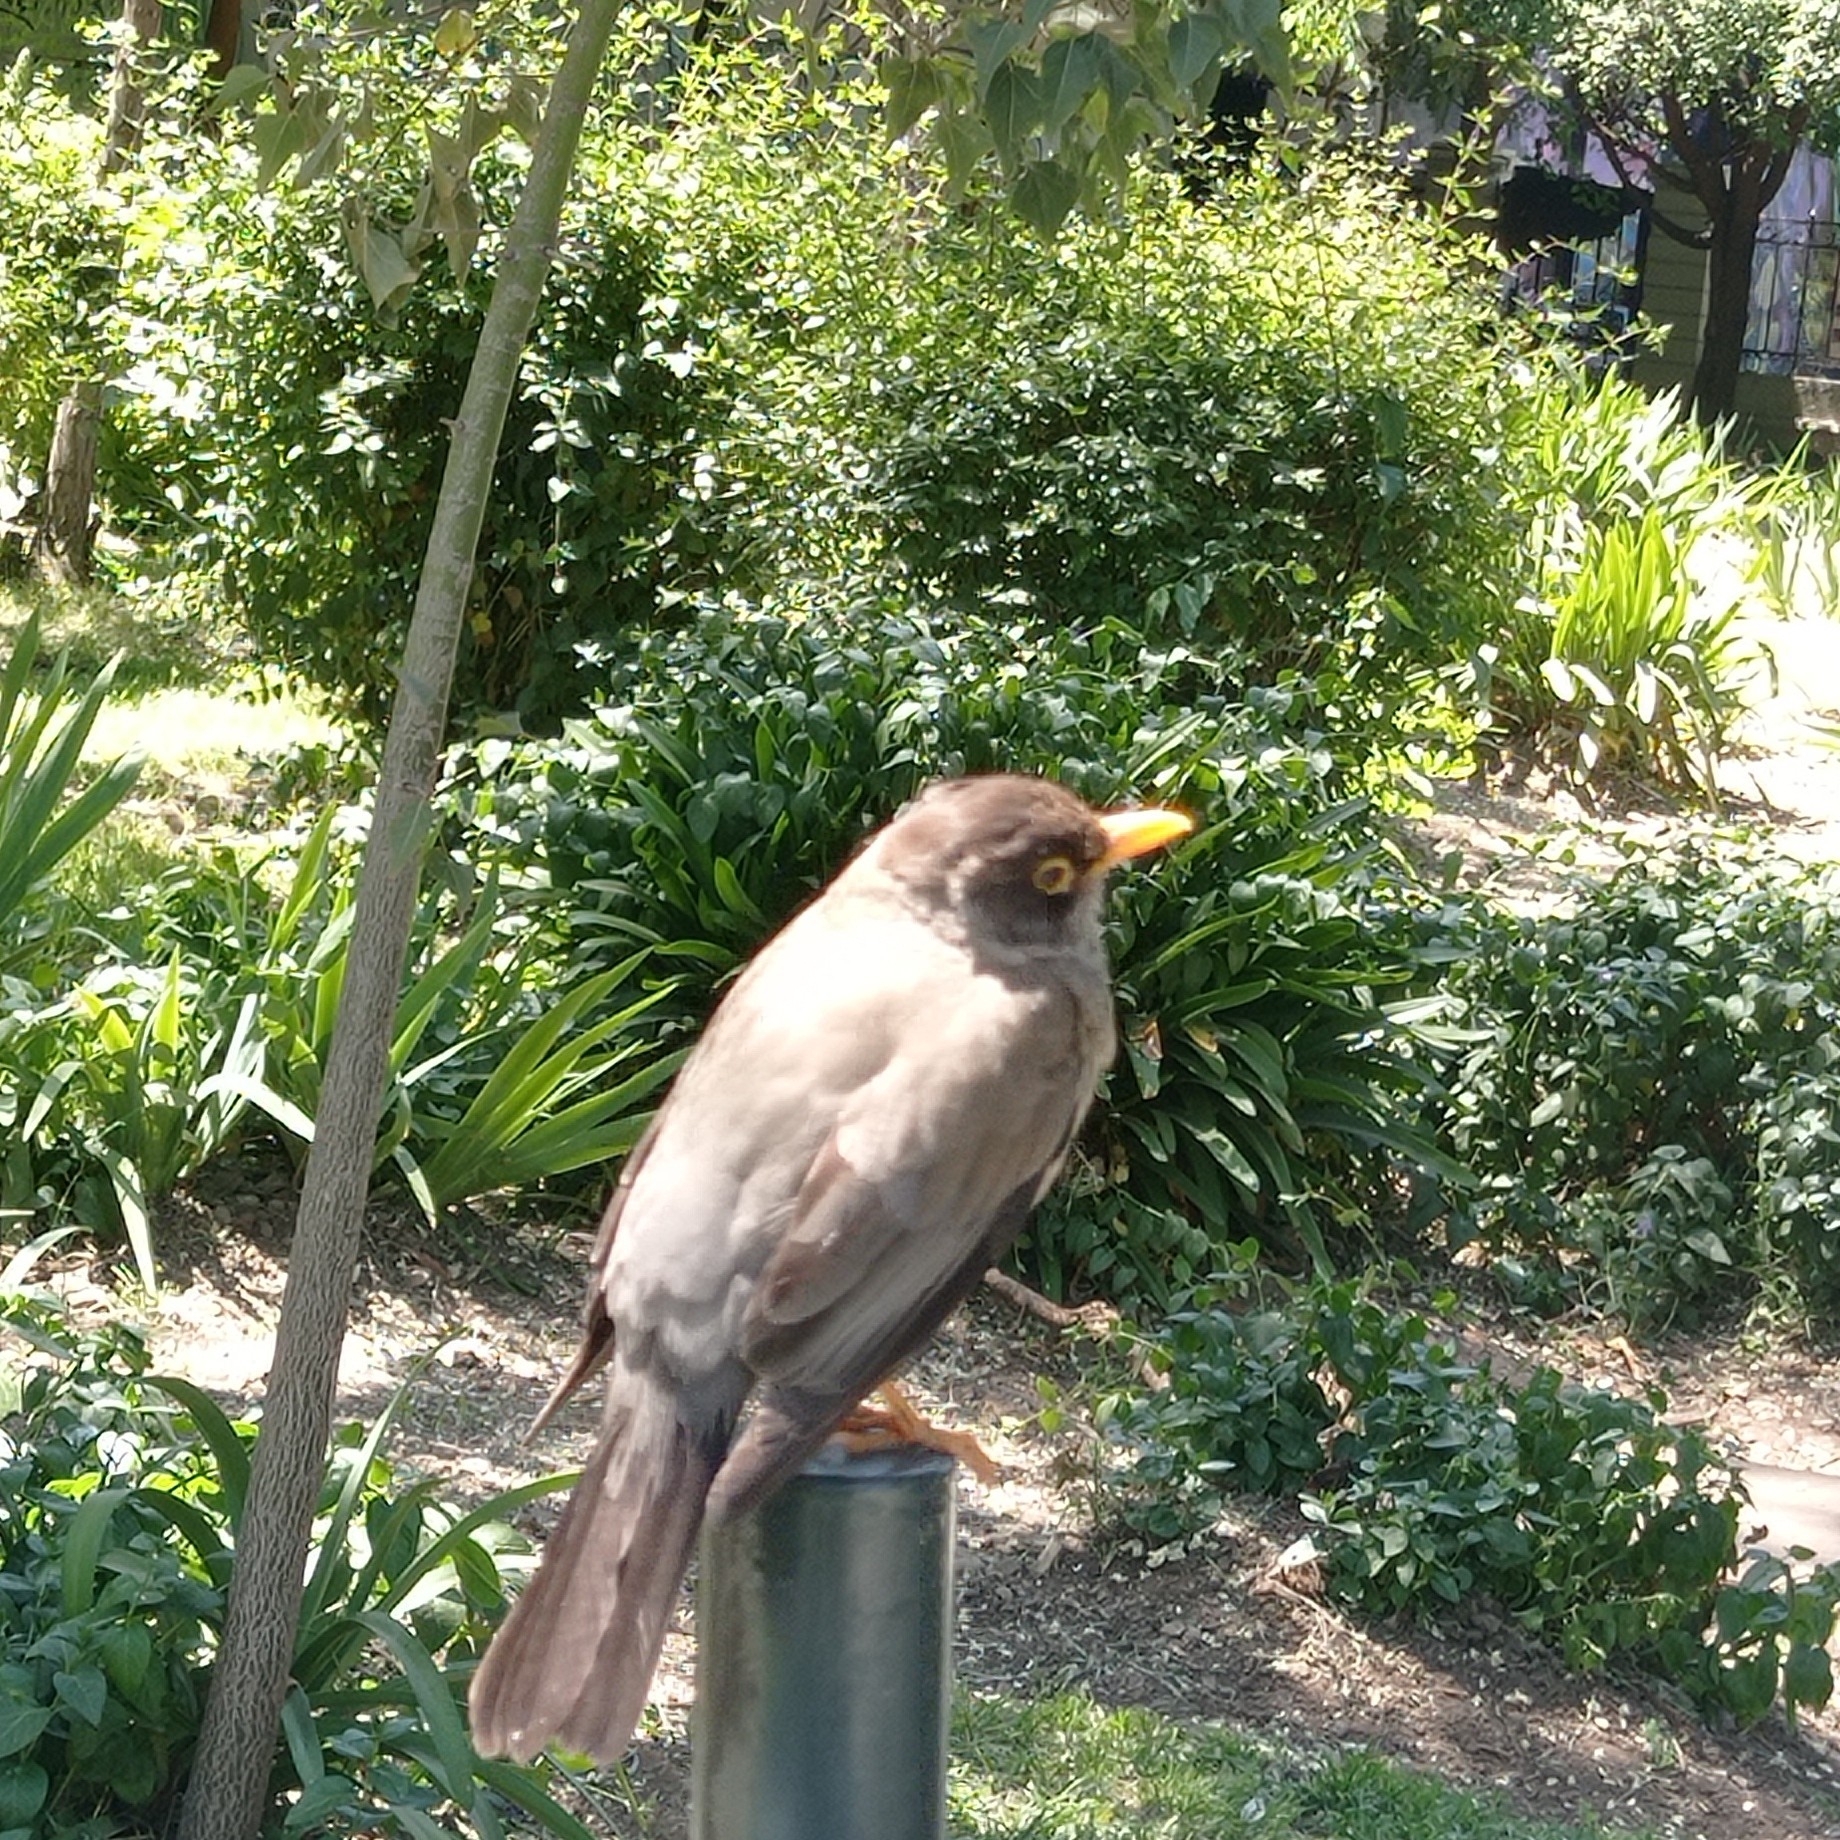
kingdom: Animalia
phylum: Chordata
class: Aves
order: Passeriformes
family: Turdidae
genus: Turdus
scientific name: Turdus falcklandii
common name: Austral thrush
